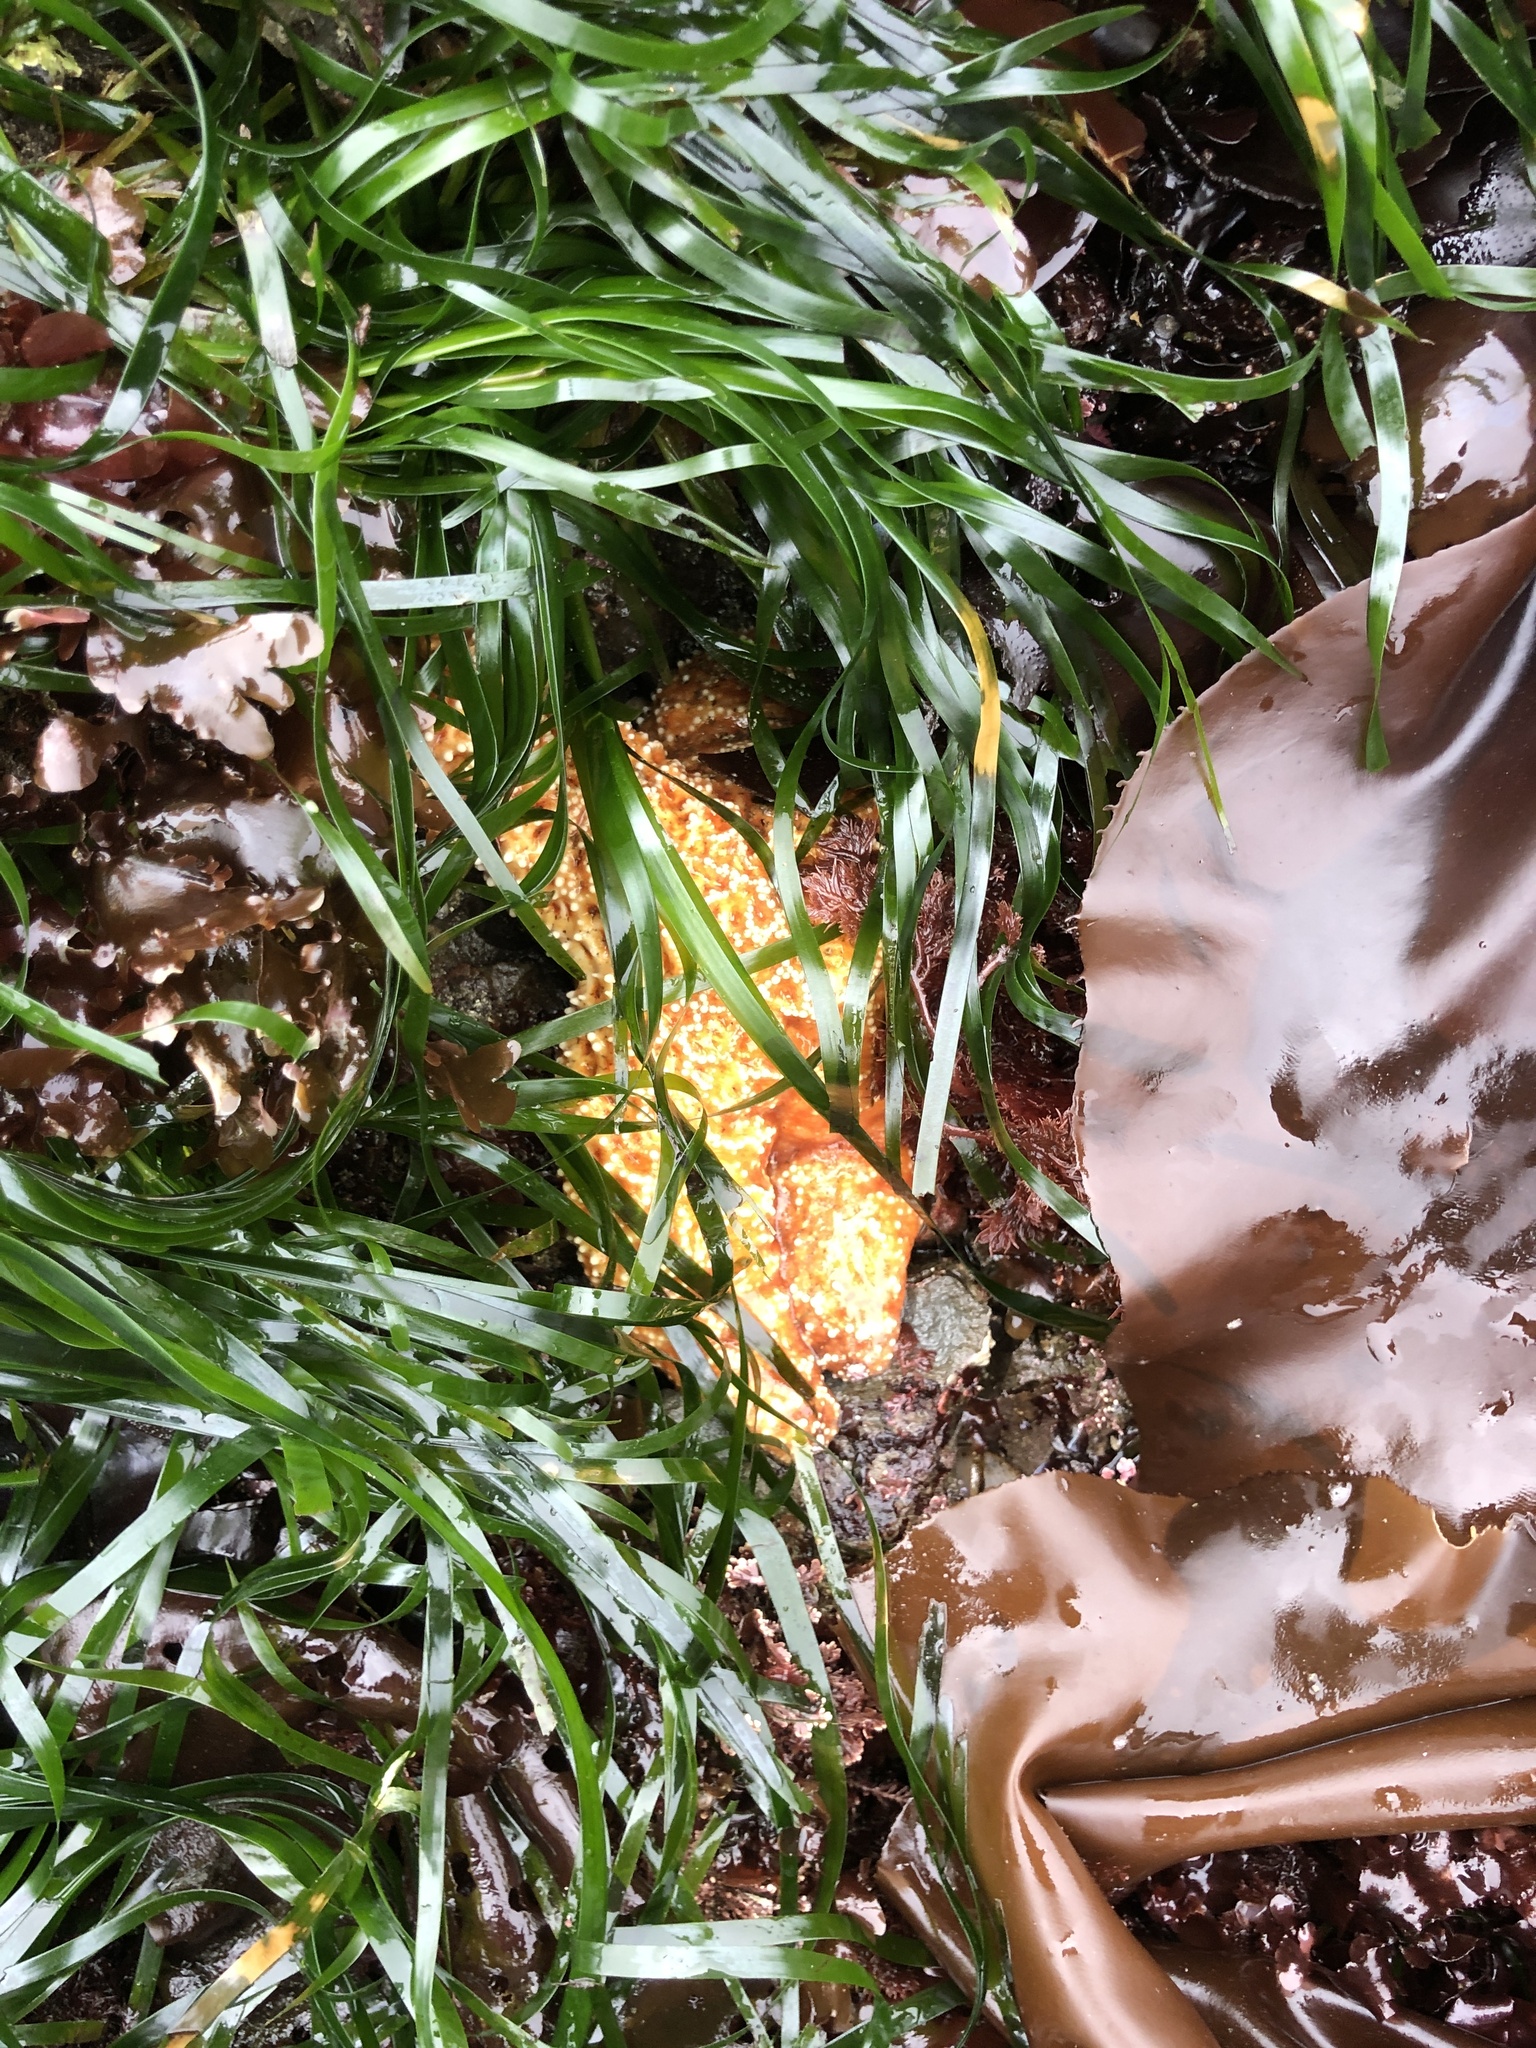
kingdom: Animalia
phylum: Echinodermata
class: Asteroidea
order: Forcipulatida
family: Asteriidae
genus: Pisaster
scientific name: Pisaster ochraceus
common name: Ochre stars
